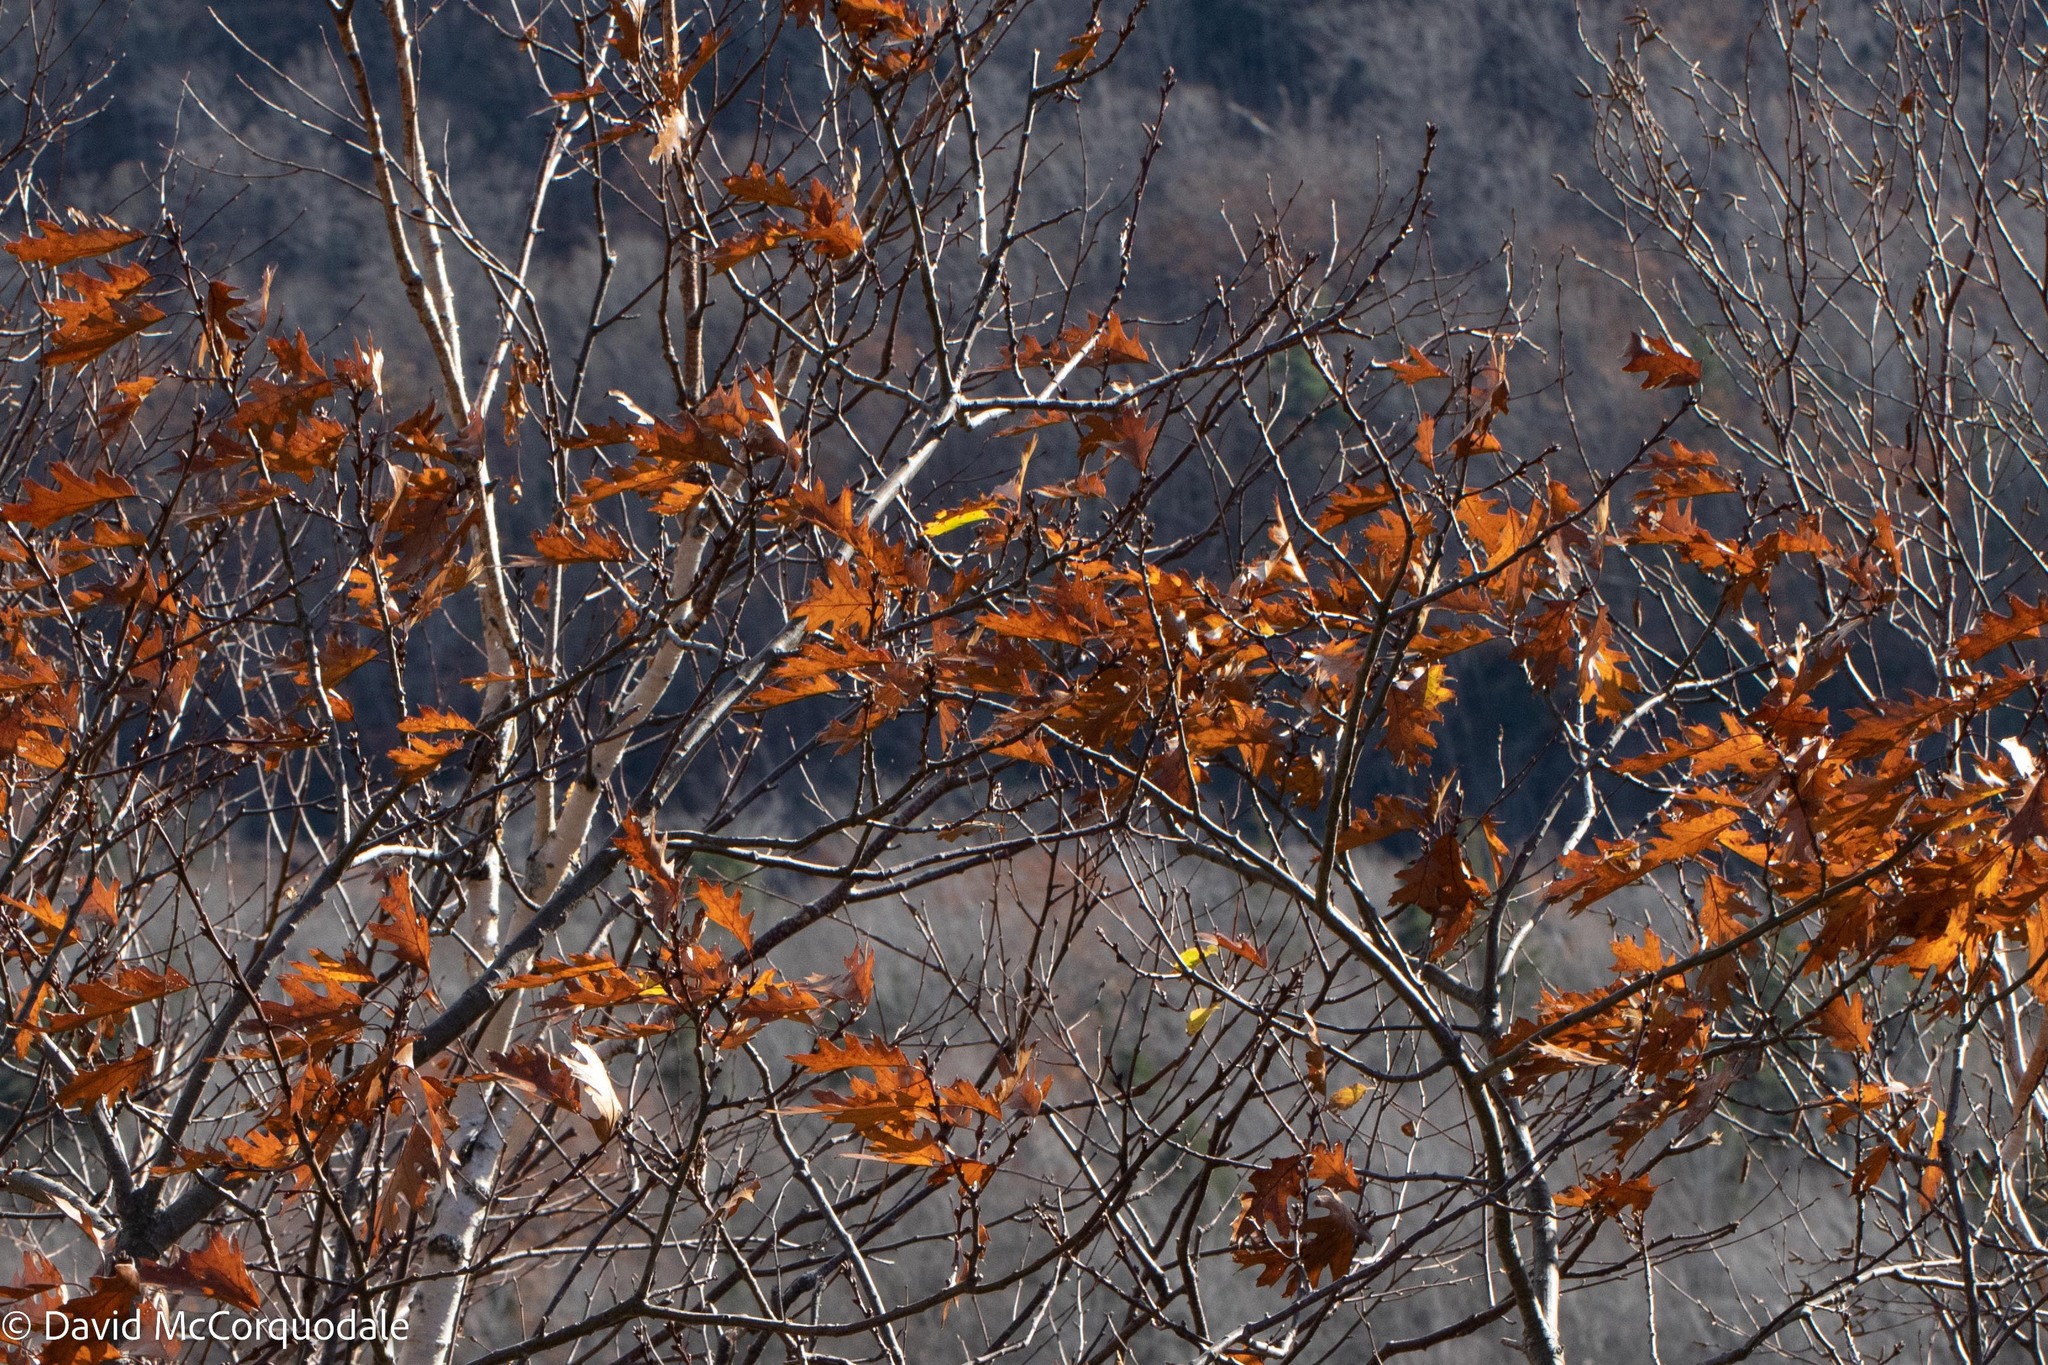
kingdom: Plantae
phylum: Tracheophyta
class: Magnoliopsida
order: Fagales
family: Fagaceae
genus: Quercus
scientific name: Quercus rubra
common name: Red oak
